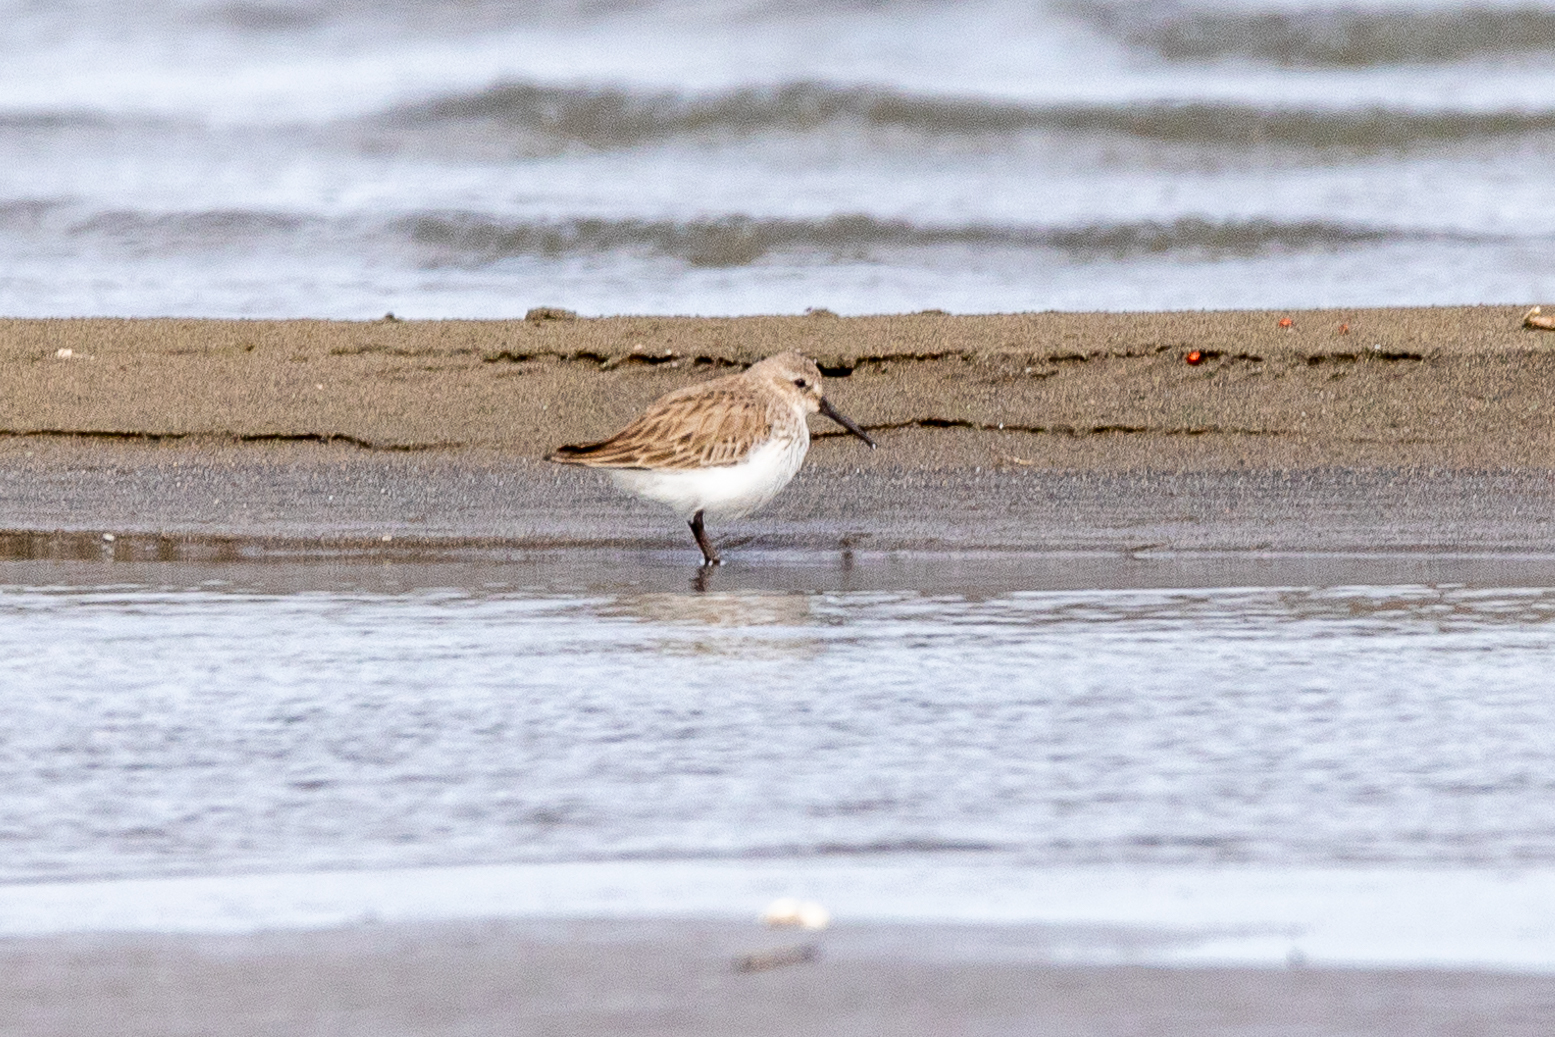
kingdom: Animalia
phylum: Chordata
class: Aves
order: Charadriiformes
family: Scolopacidae
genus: Calidris
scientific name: Calidris alpina
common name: Dunlin
